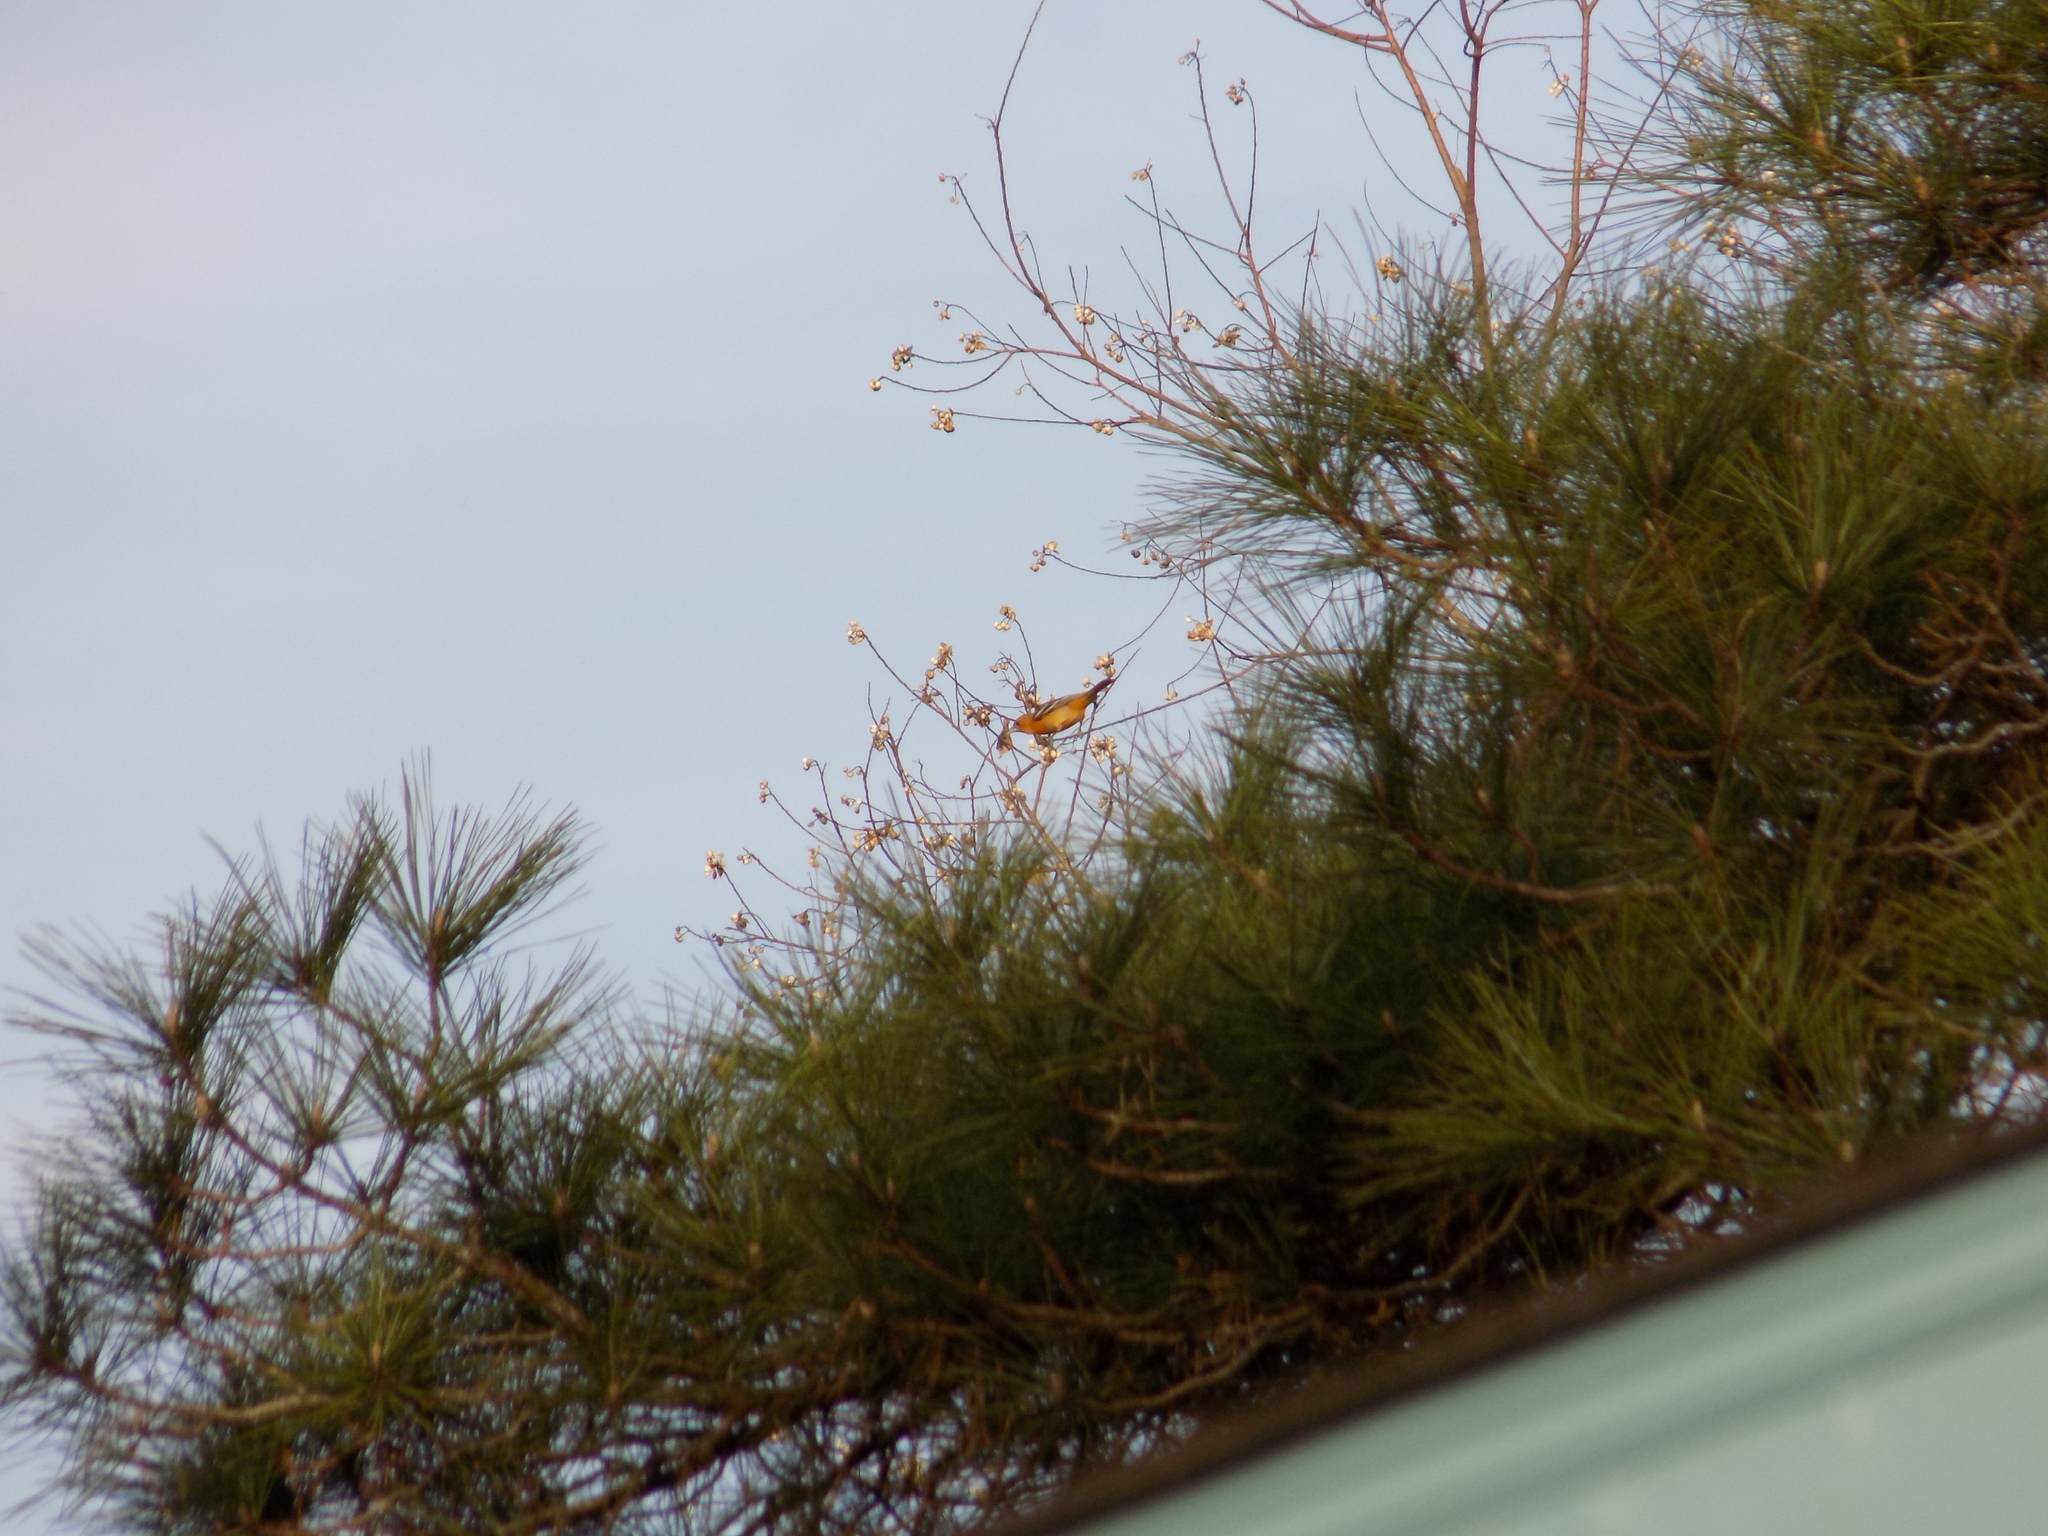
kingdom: Animalia
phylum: Chordata
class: Aves
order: Passeriformes
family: Icteridae
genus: Icterus
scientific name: Icterus galbula
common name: Baltimore oriole
